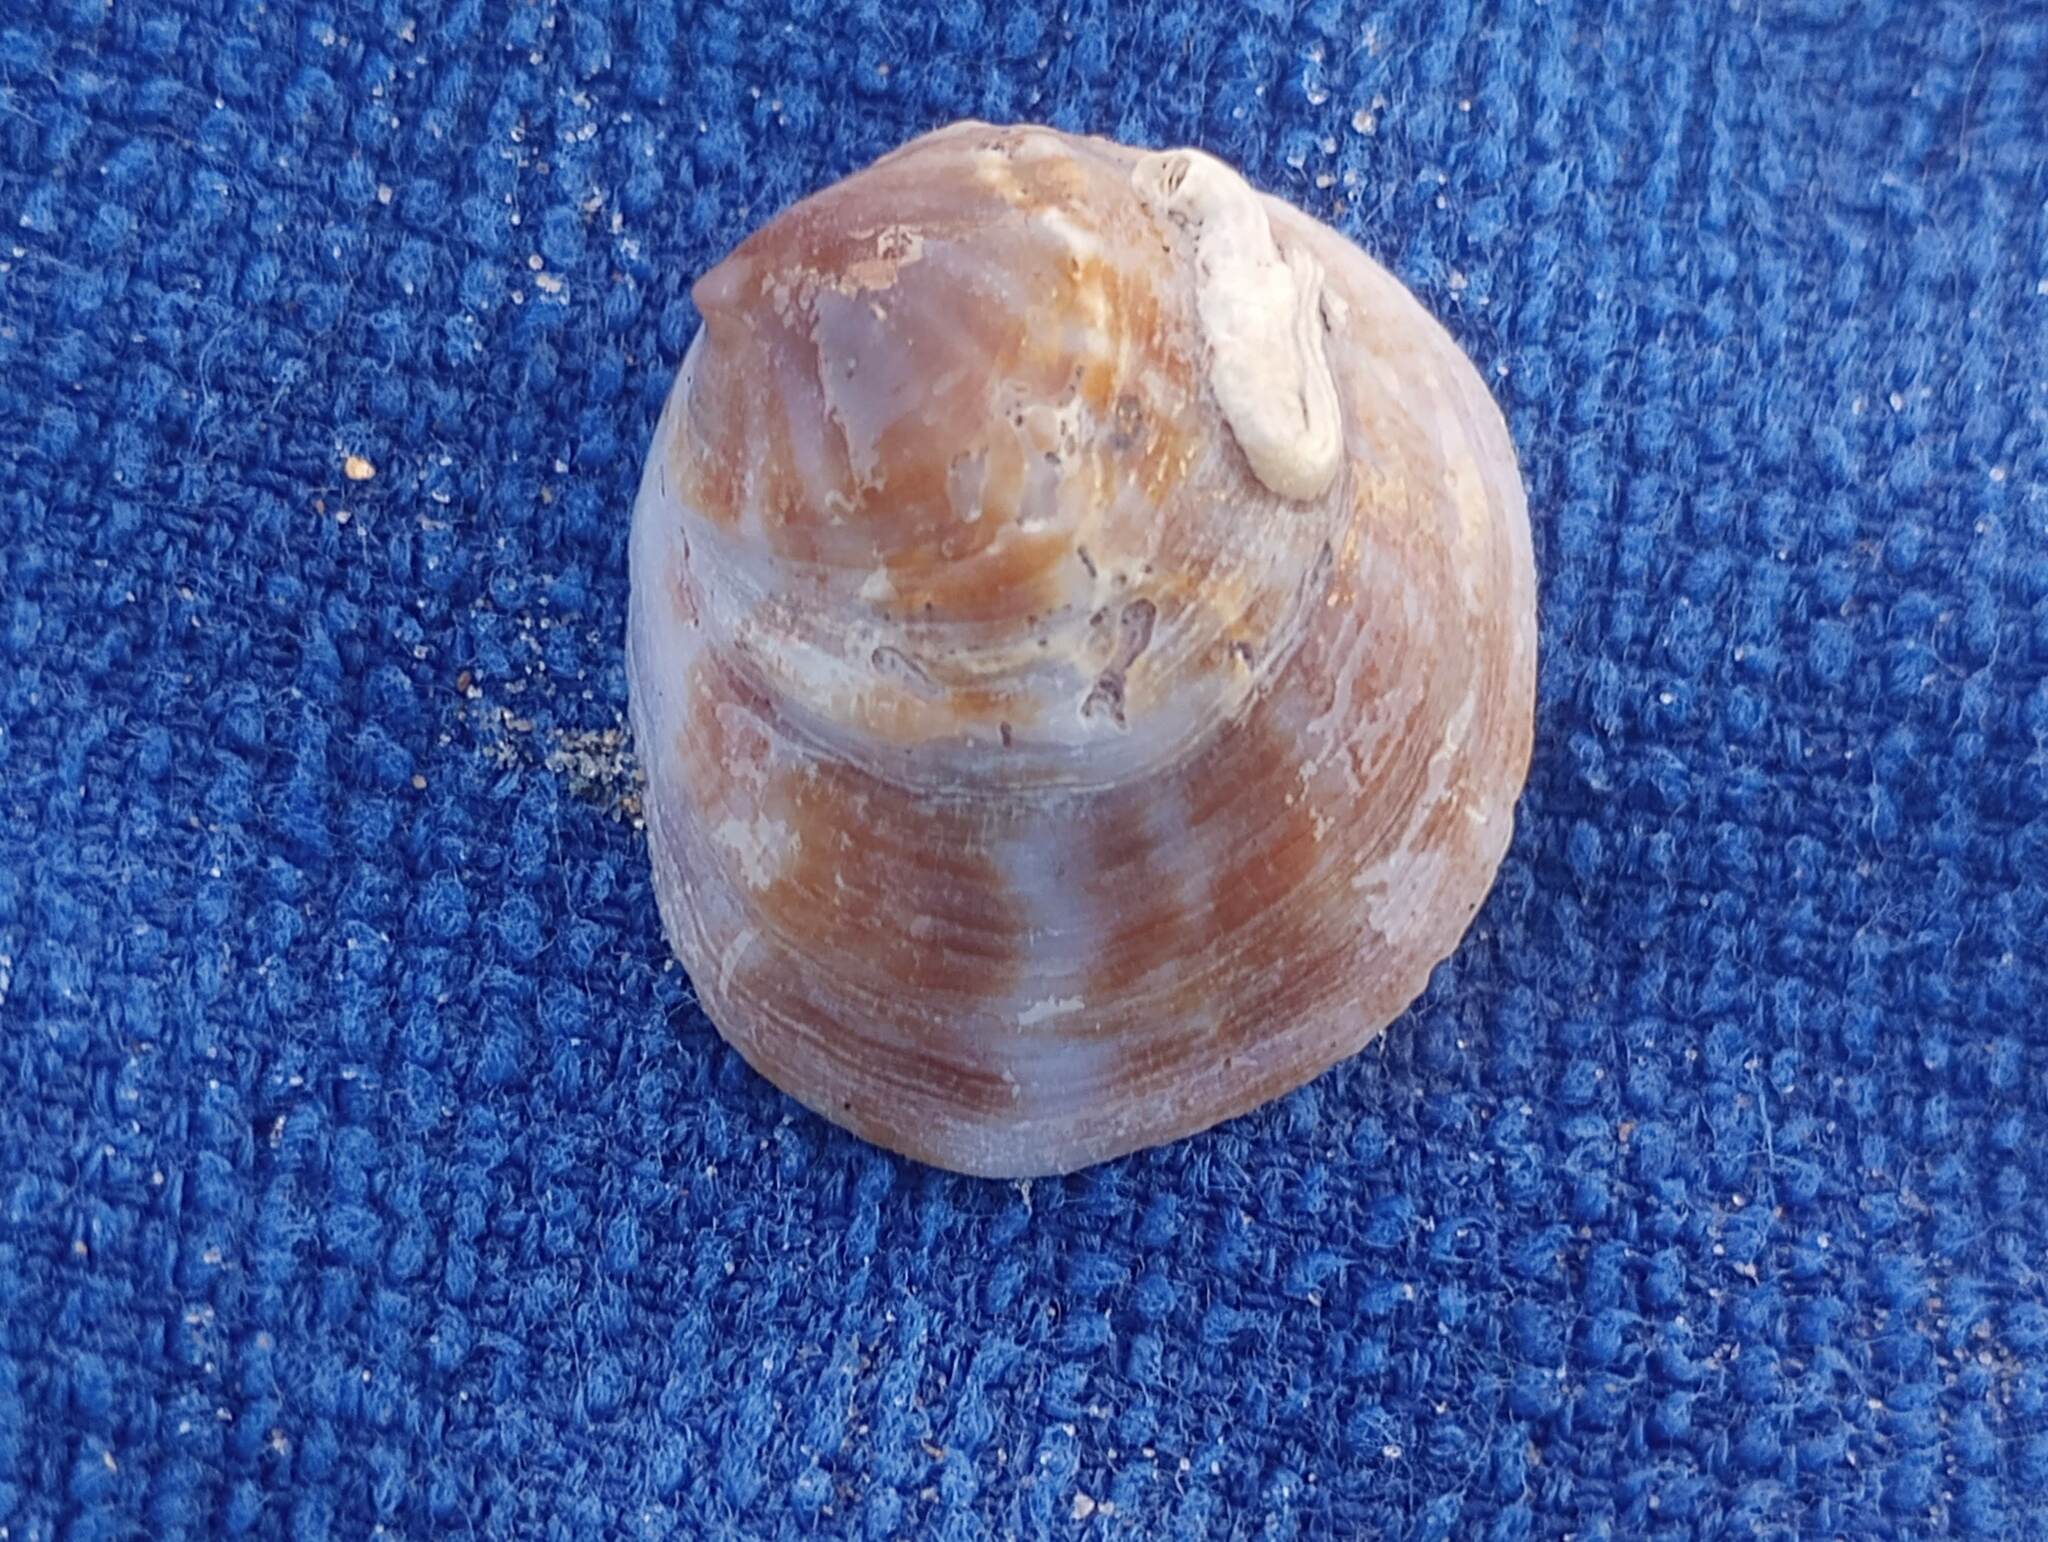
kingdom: Animalia
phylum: Mollusca
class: Gastropoda
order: Littorinimorpha
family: Calyptraeidae
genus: Crepipatella
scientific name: Crepipatella lingulata
